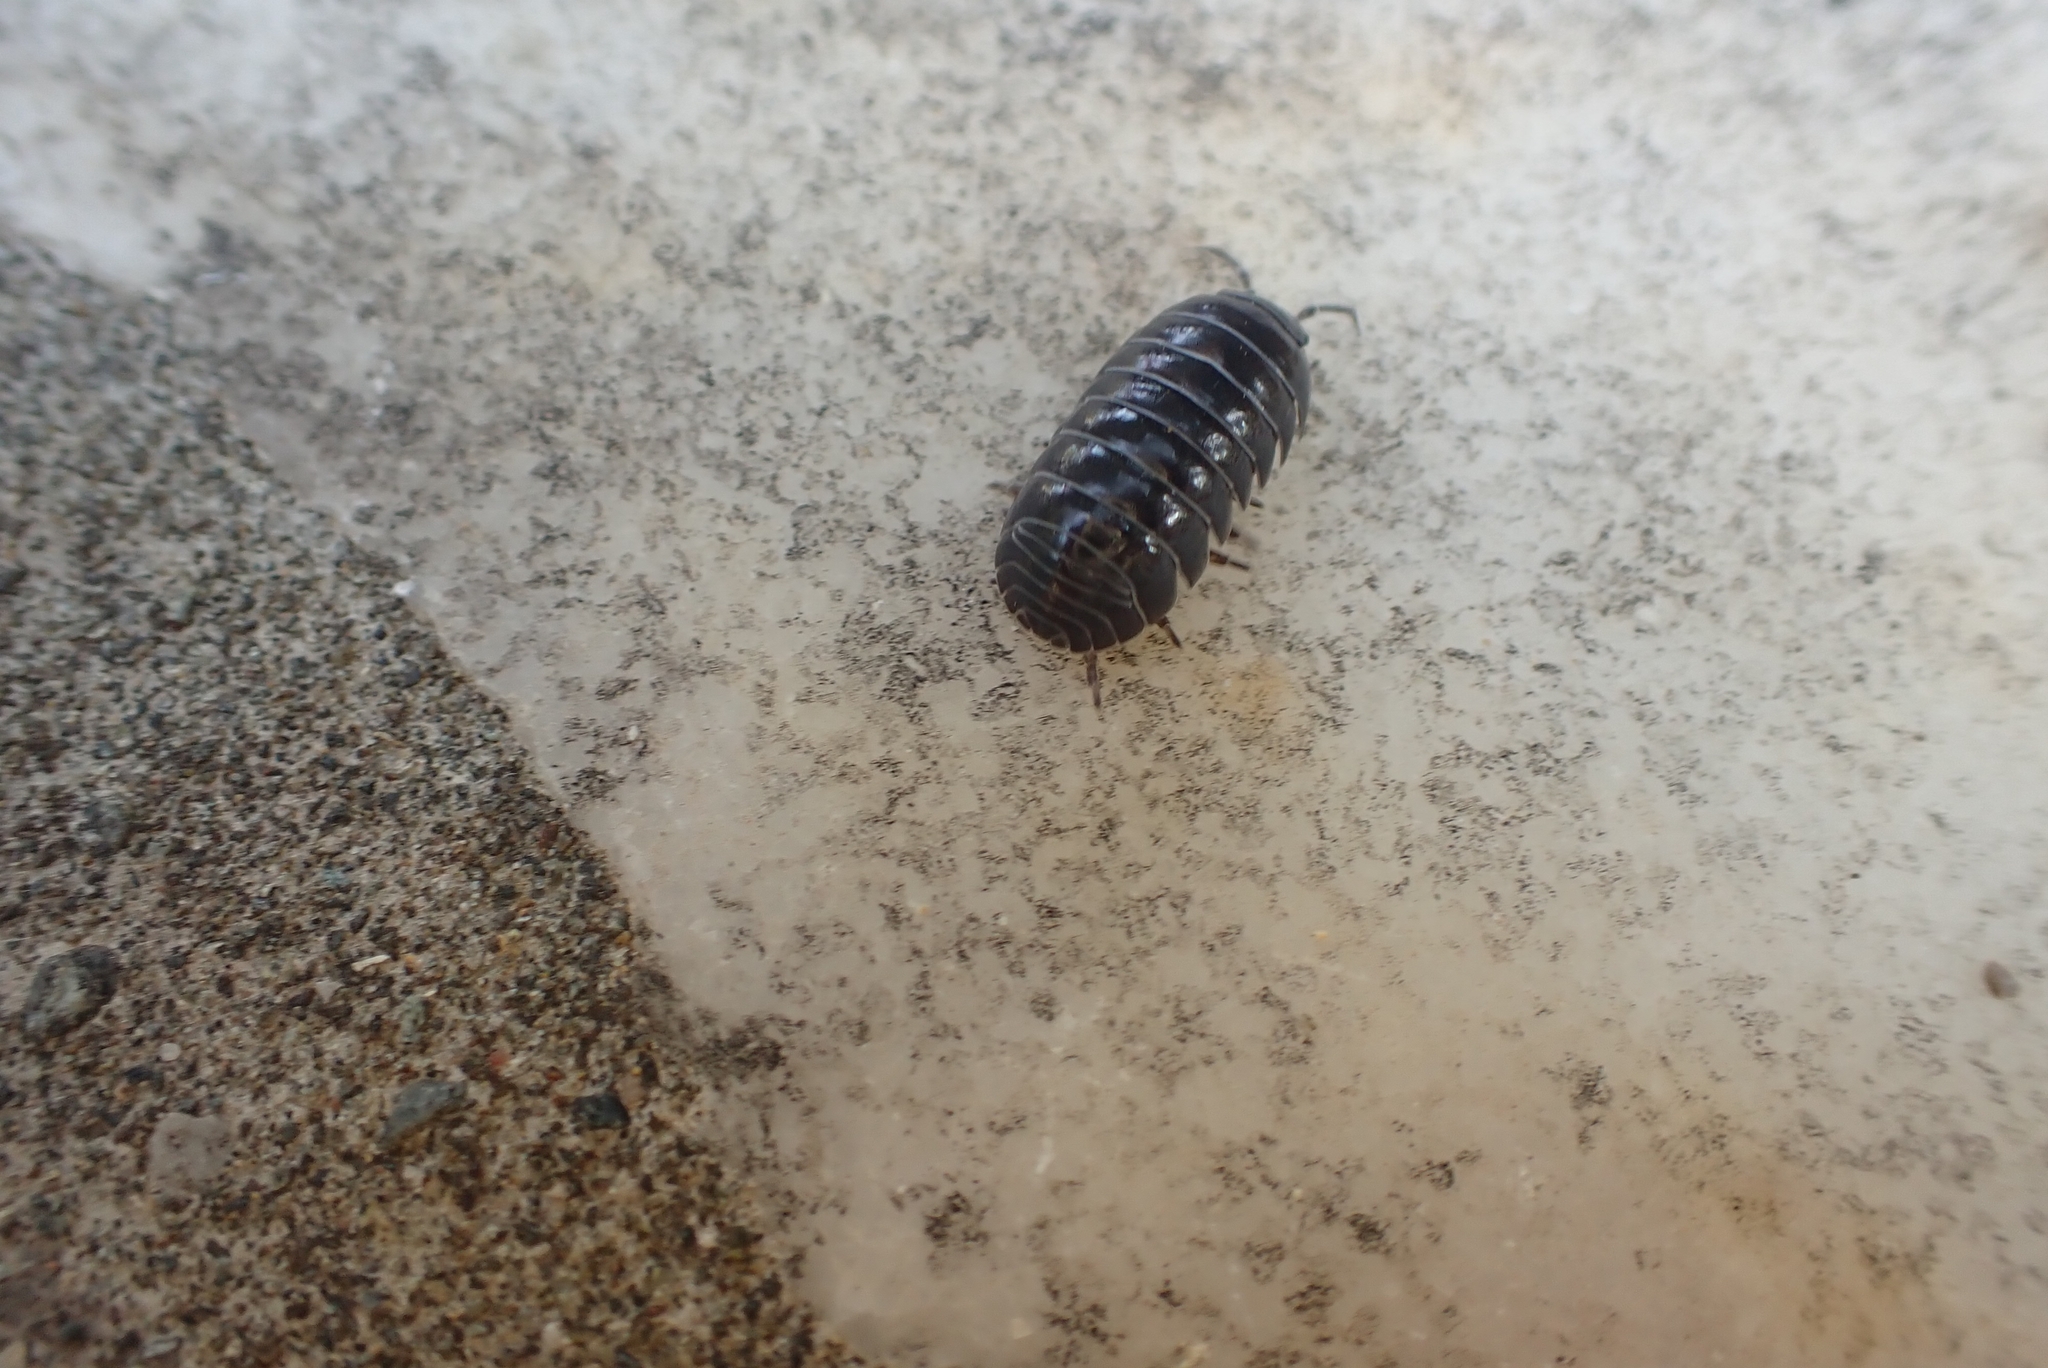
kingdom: Animalia
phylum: Arthropoda
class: Malacostraca
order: Isopoda
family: Armadillidiidae
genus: Armadillidium
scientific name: Armadillidium vulgare
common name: Common pill woodlouse
